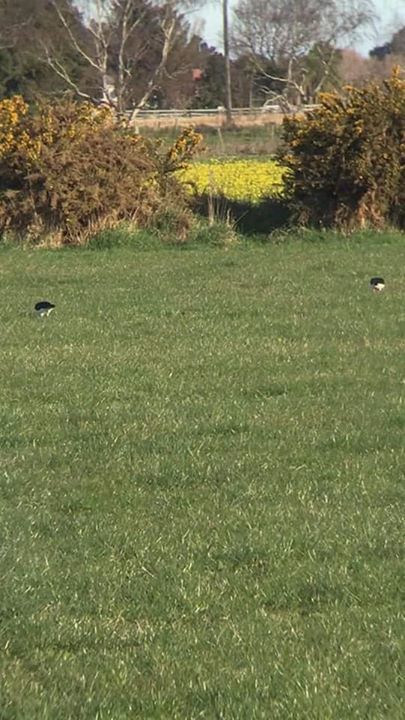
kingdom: Animalia
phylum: Chordata
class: Aves
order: Charadriiformes
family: Haematopodidae
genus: Haematopus
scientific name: Haematopus finschi
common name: South island oystercatcher
